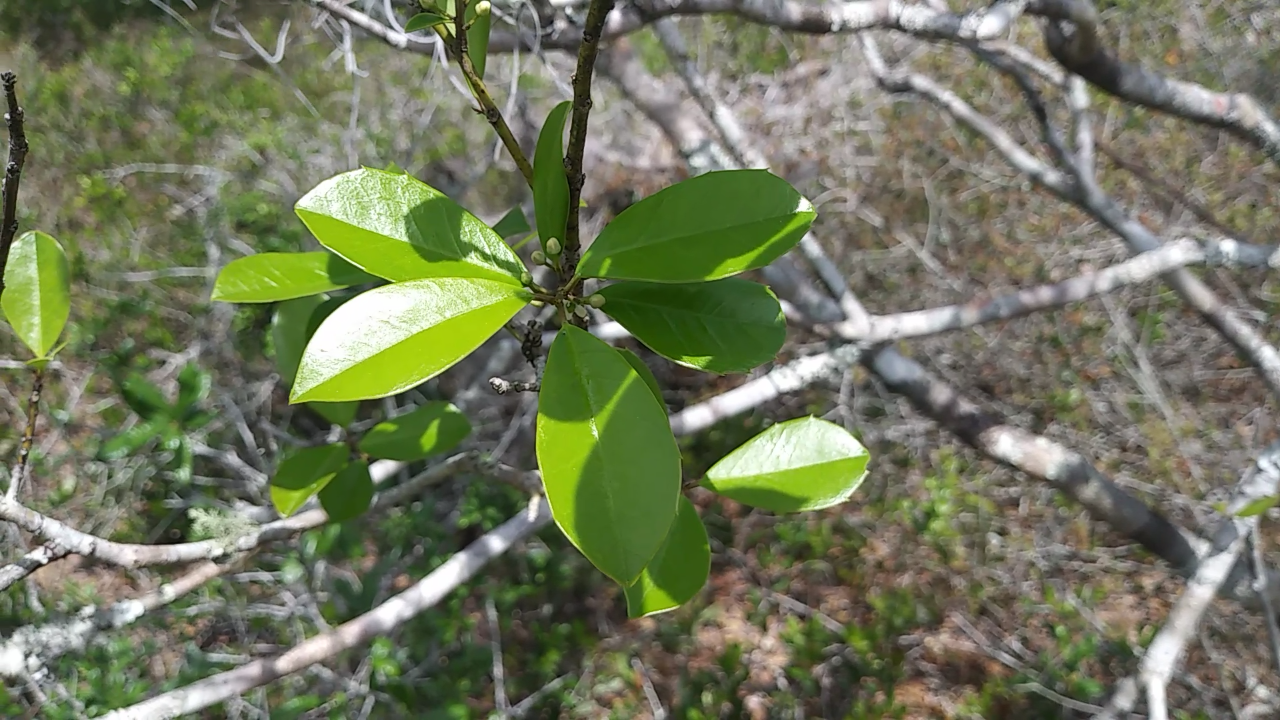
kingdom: Plantae
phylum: Tracheophyta
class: Magnoliopsida
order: Aquifoliales
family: Aquifoliaceae
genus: Ilex
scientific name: Ilex cassine
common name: Dahoon
